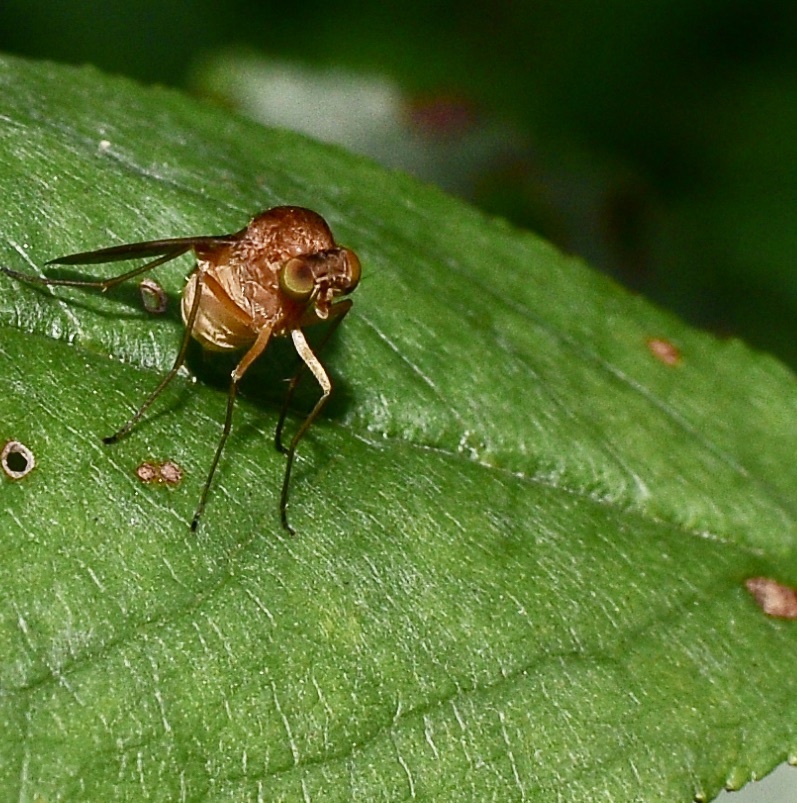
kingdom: Animalia
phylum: Arthropoda
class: Insecta
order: Diptera
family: Rhagionidae
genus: Chrysopilus
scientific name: Chrysopilus quadratus
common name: Quadrate snipe fly
